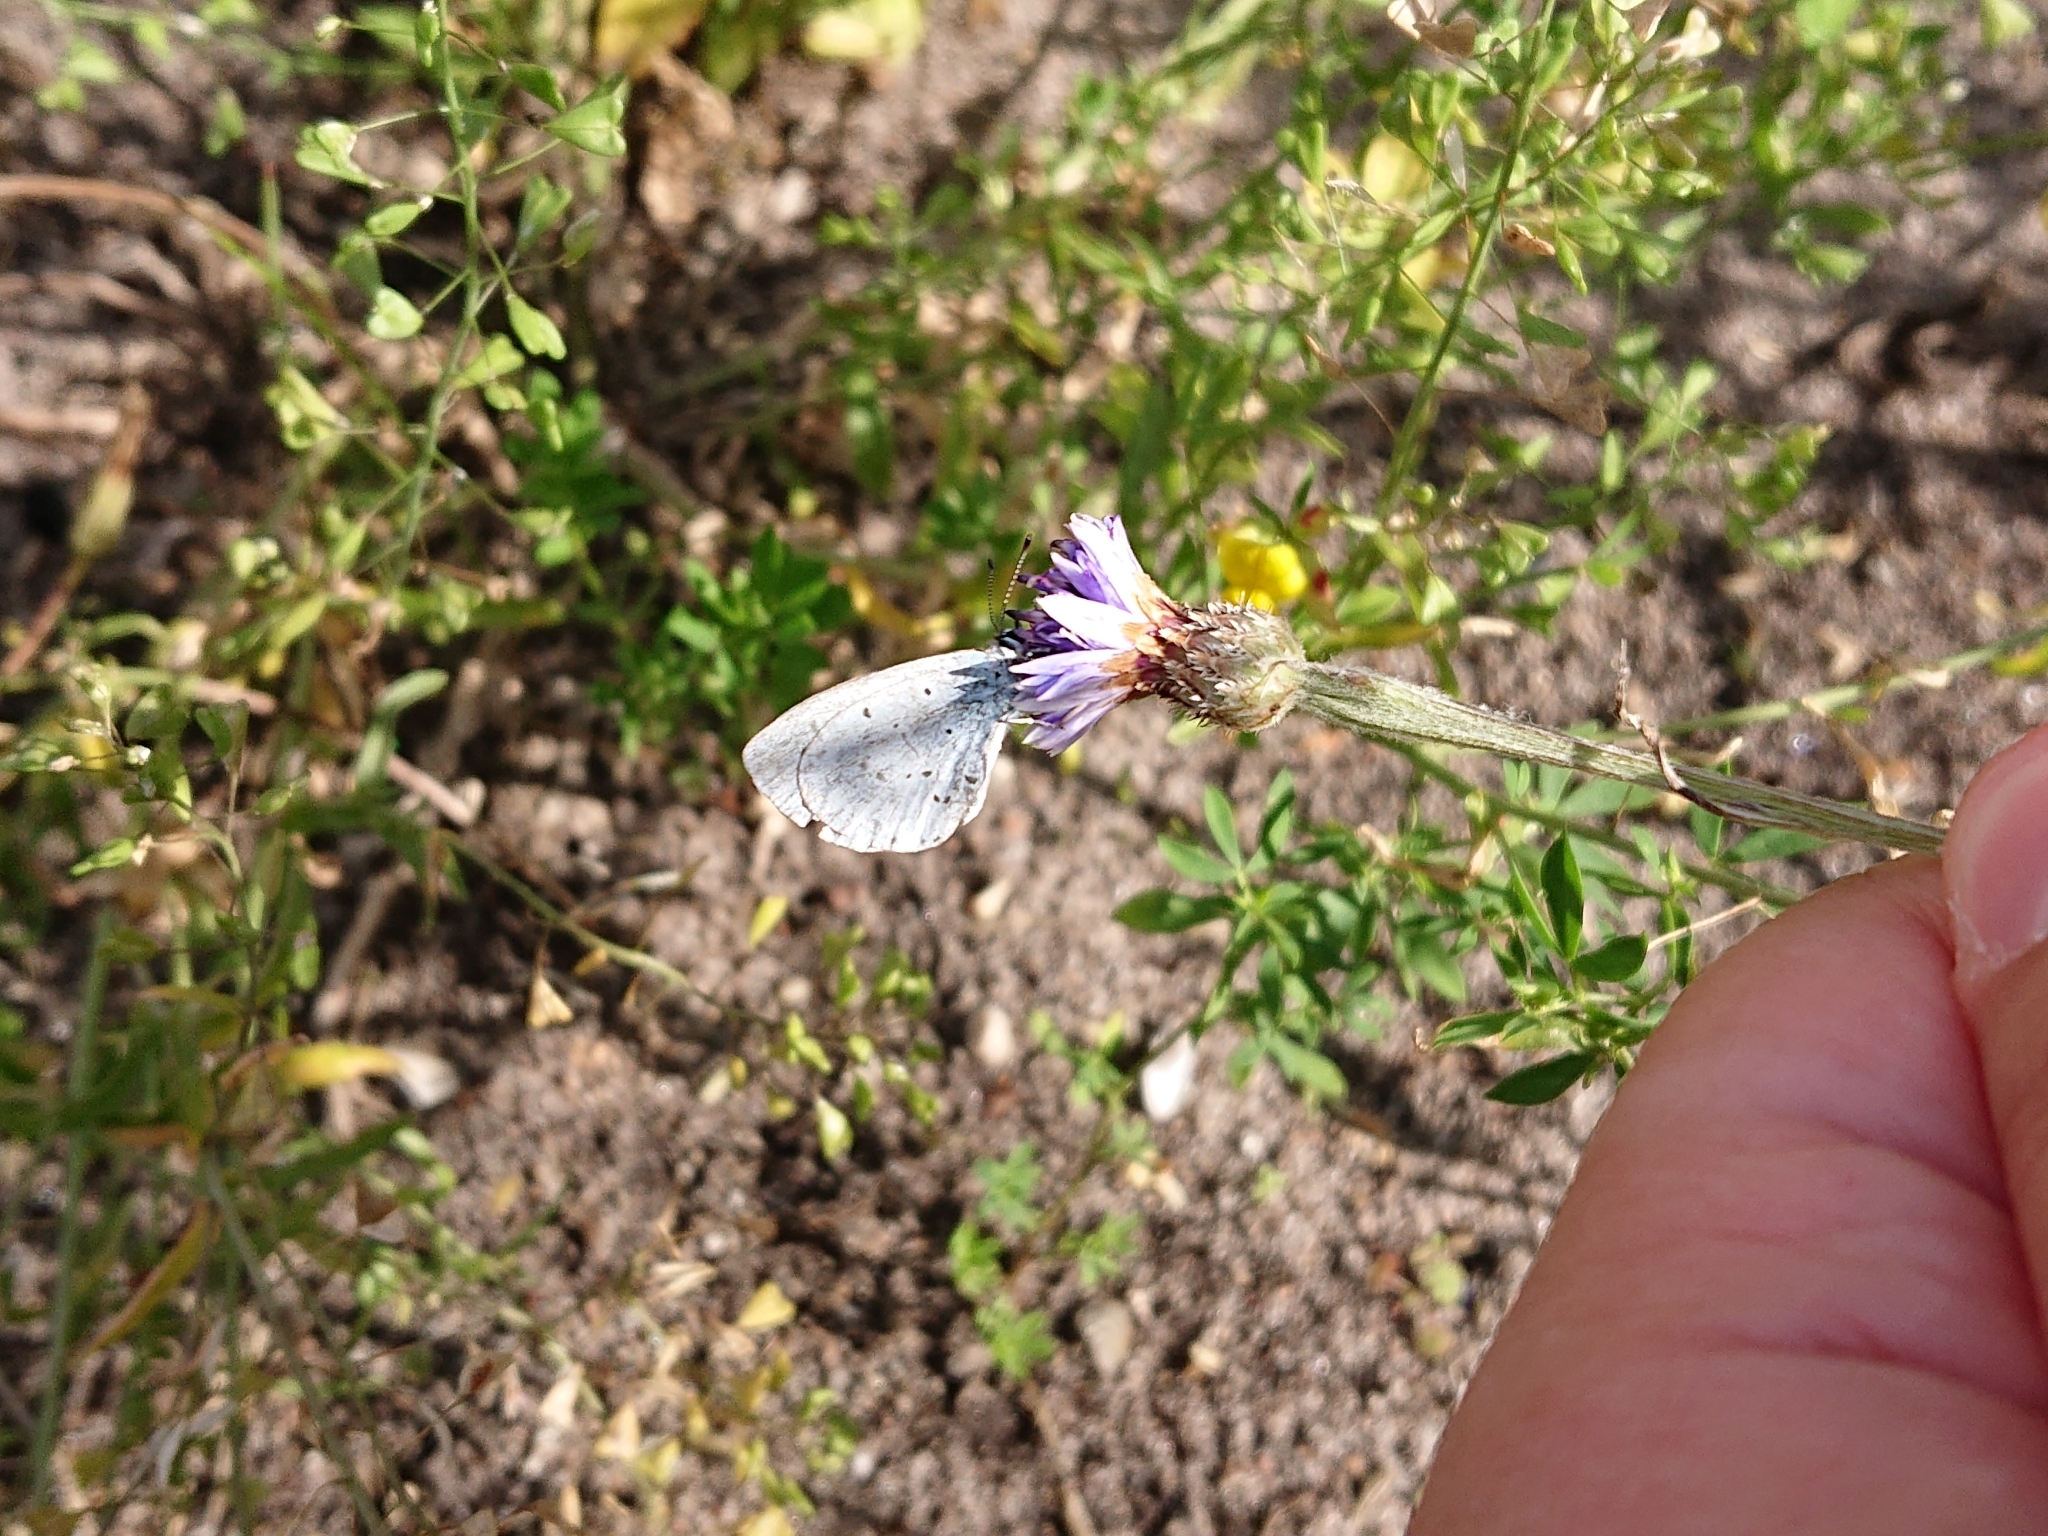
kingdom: Animalia
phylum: Arthropoda
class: Insecta
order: Lepidoptera
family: Lycaenidae
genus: Celastrina
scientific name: Celastrina argiolus
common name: Holly blue
